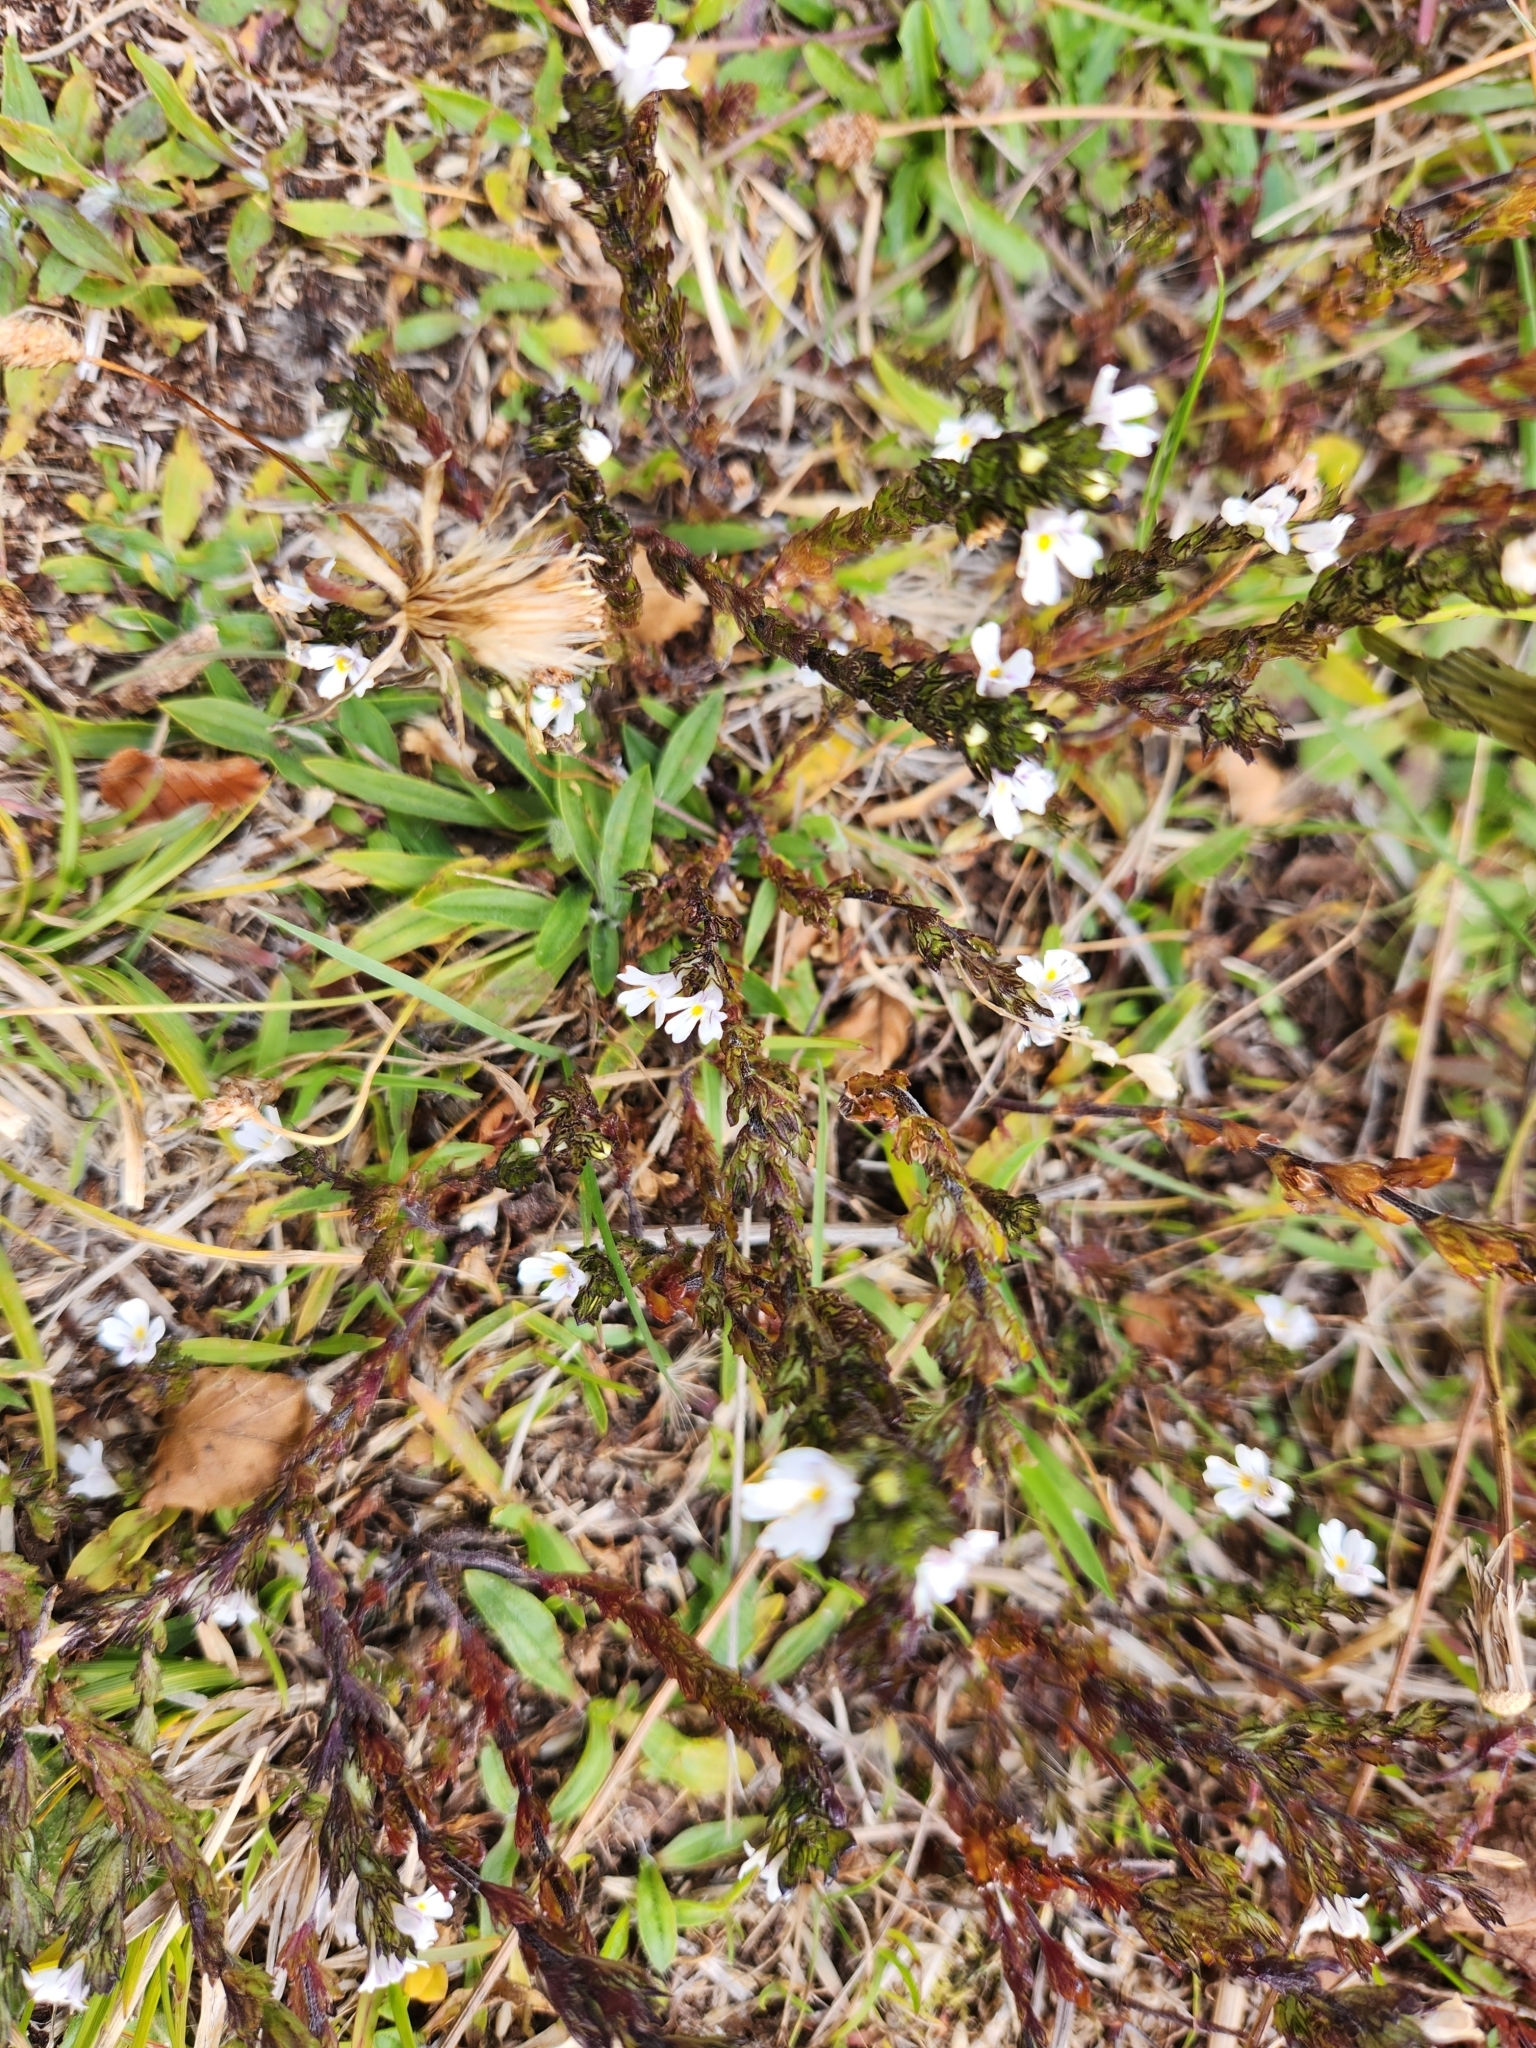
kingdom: Plantae
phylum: Tracheophyta
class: Magnoliopsida
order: Lamiales
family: Orobanchaceae
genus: Euphrasia
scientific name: Euphrasia officinalis
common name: Eyebright
